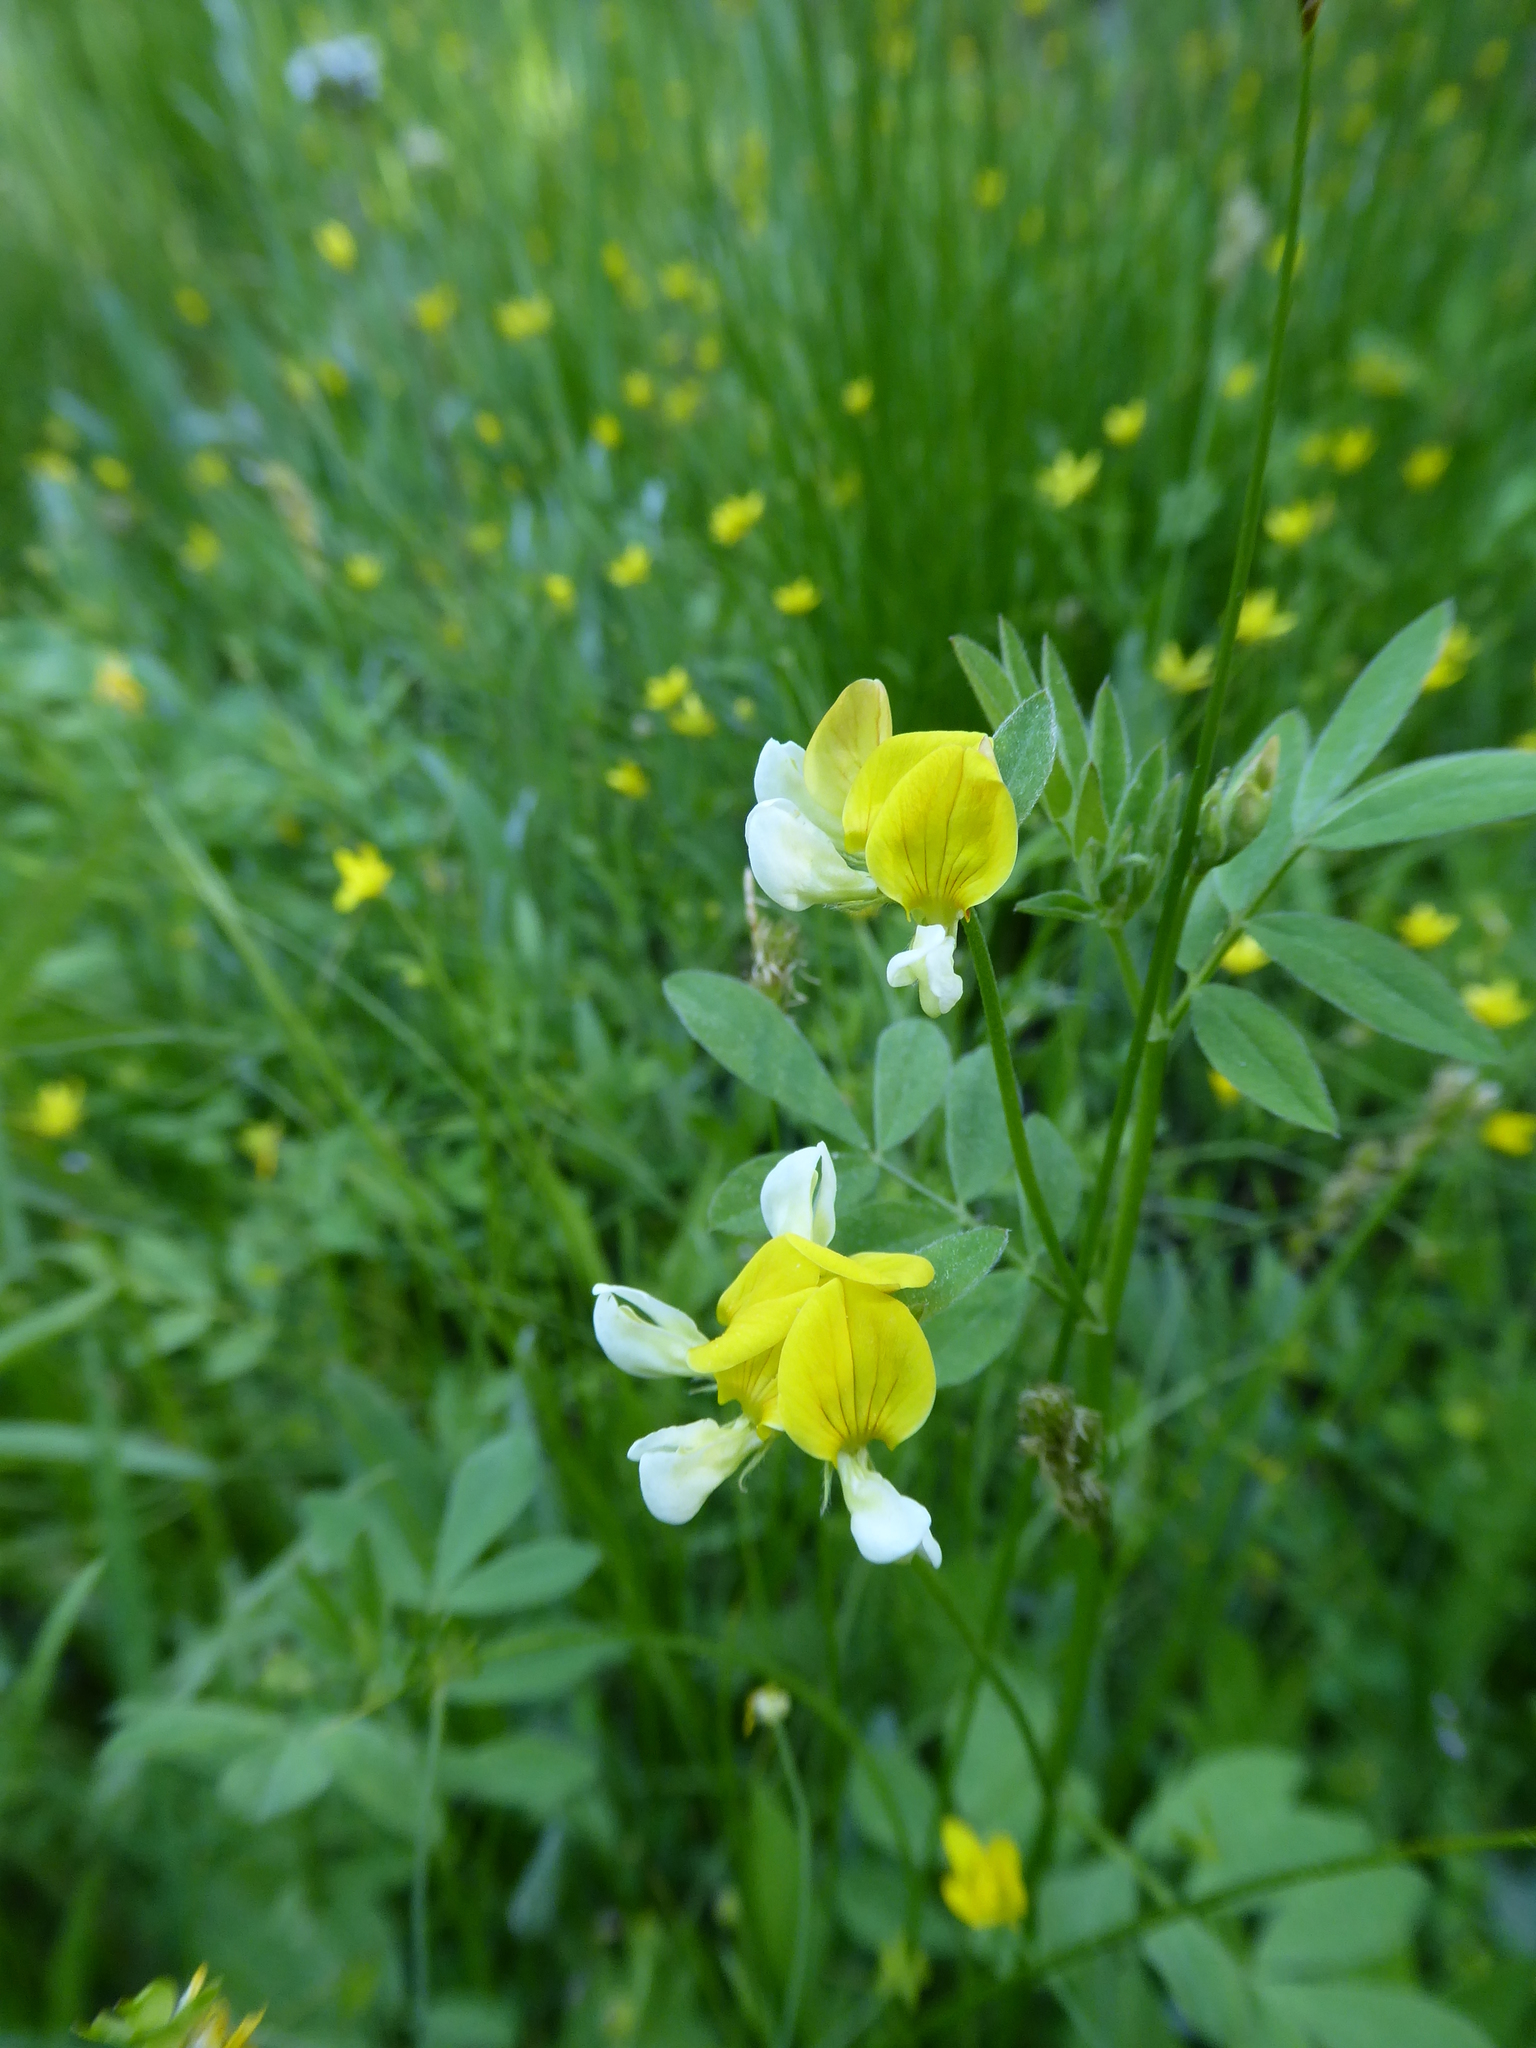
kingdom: Plantae
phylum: Tracheophyta
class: Magnoliopsida
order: Fabales
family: Fabaceae
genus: Hosackia
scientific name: Hosackia oblongifolia
